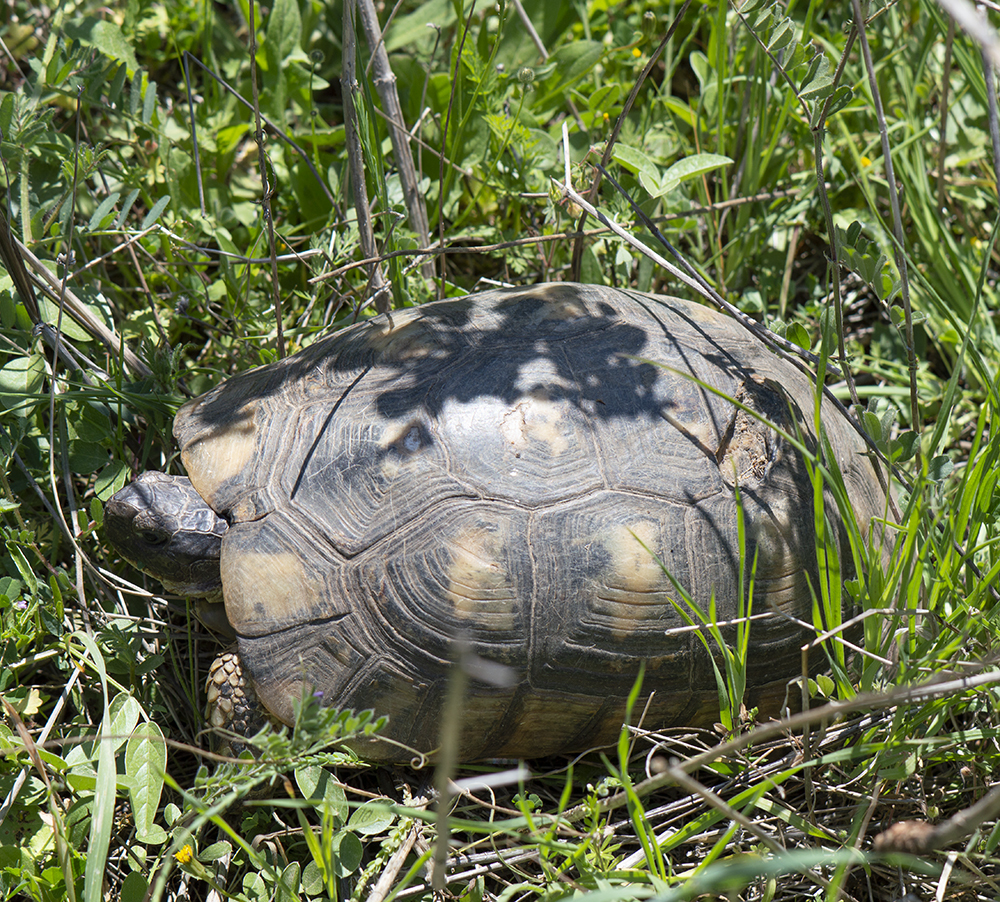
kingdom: Animalia
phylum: Chordata
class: Testudines
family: Testudinidae
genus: Testudo
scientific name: Testudo marginata
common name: Marginated tortoise
